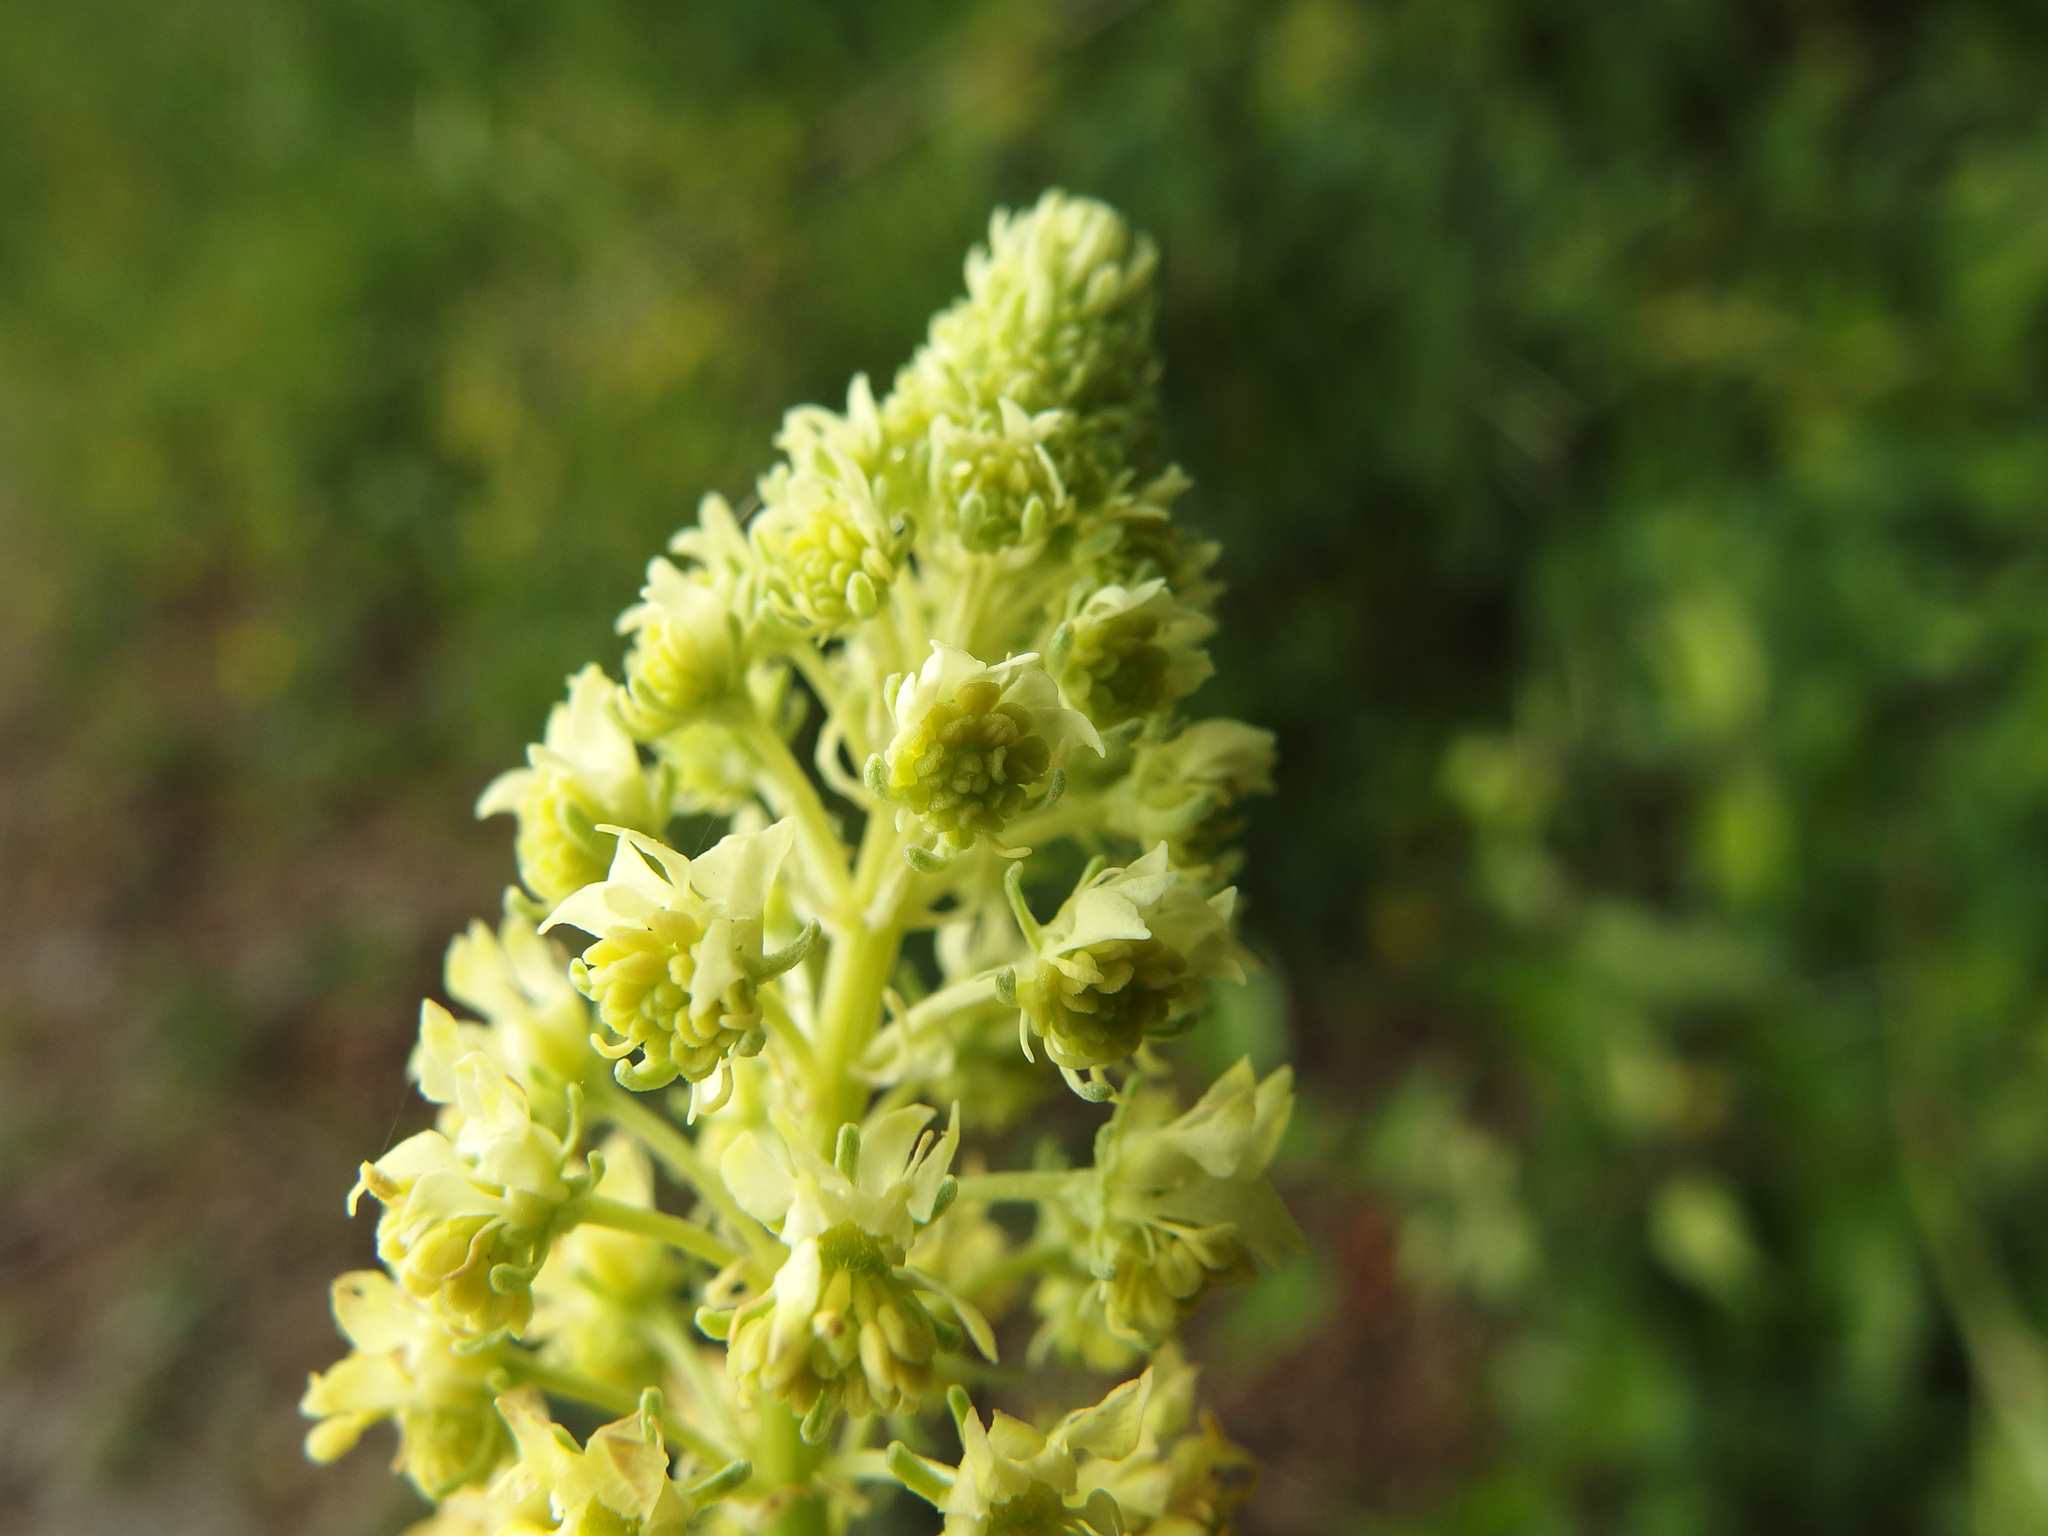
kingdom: Plantae
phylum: Tracheophyta
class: Magnoliopsida
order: Brassicales
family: Resedaceae
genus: Reseda
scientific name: Reseda lutea
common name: Wild mignonette
